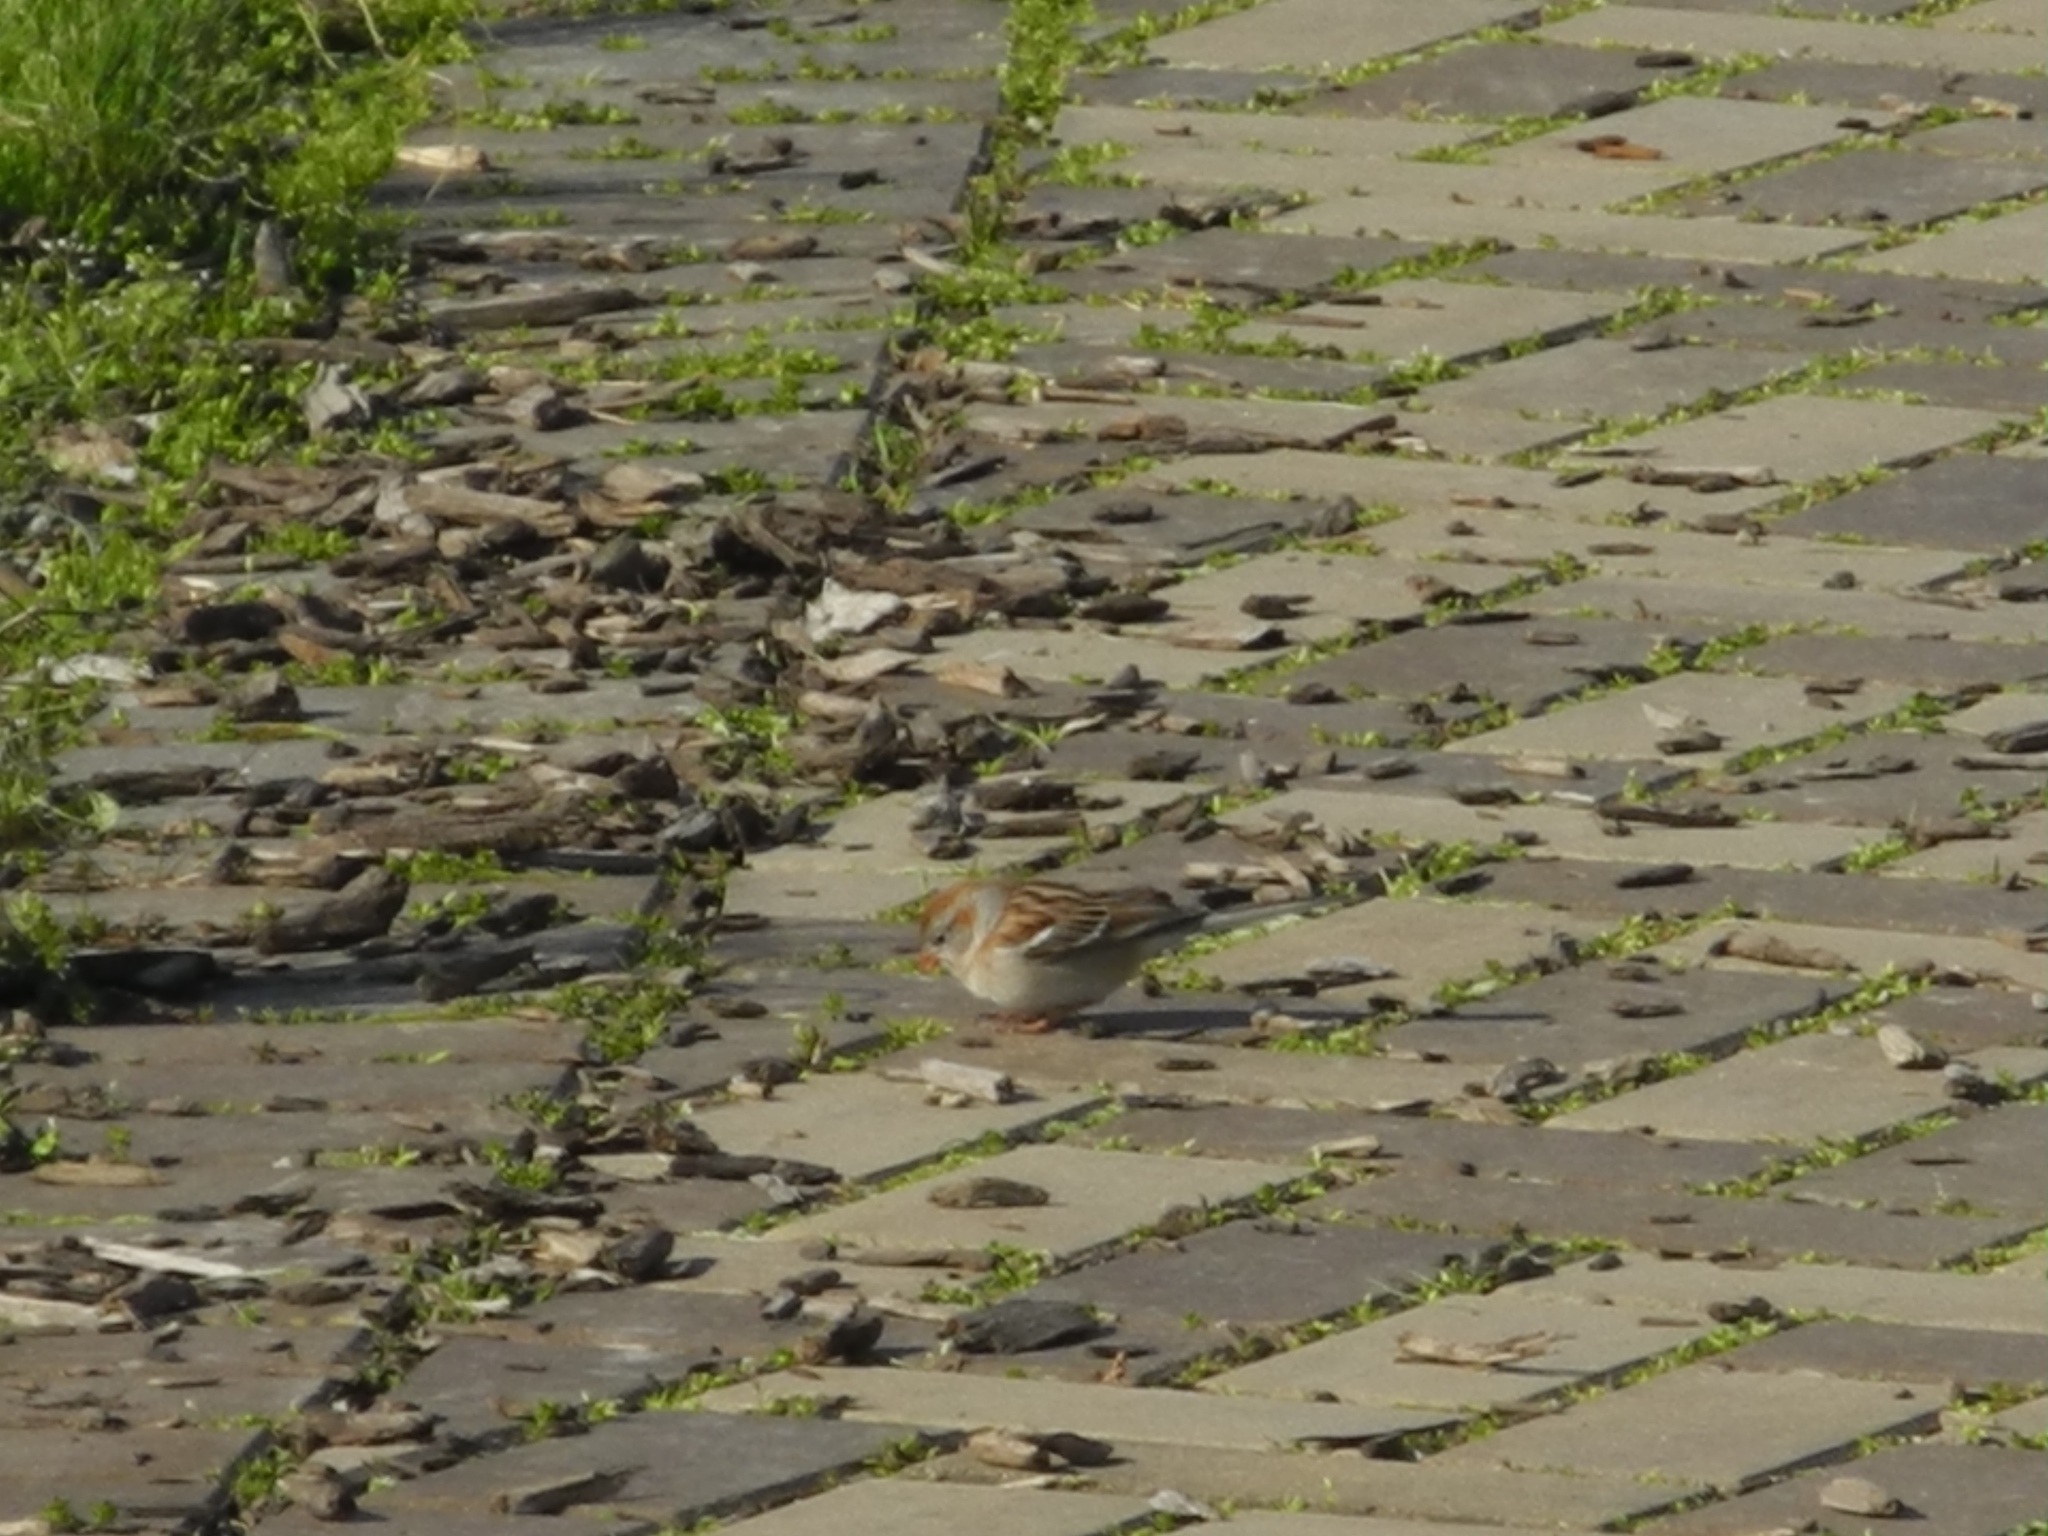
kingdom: Animalia
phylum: Chordata
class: Aves
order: Passeriformes
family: Passerellidae
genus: Spizella
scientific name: Spizella pusilla
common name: Field sparrow
